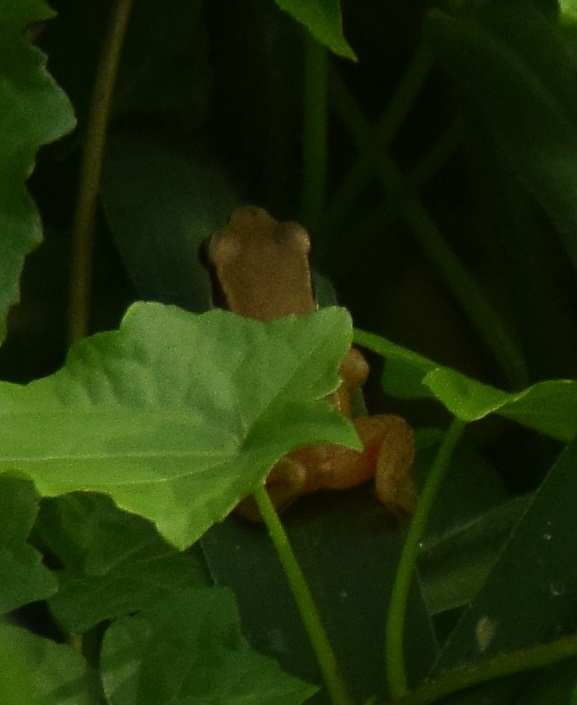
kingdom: Animalia
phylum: Chordata
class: Amphibia
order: Anura
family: Rhacophoridae
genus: Polypedates
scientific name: Polypedates maculatus
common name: Himalayan tree frog
